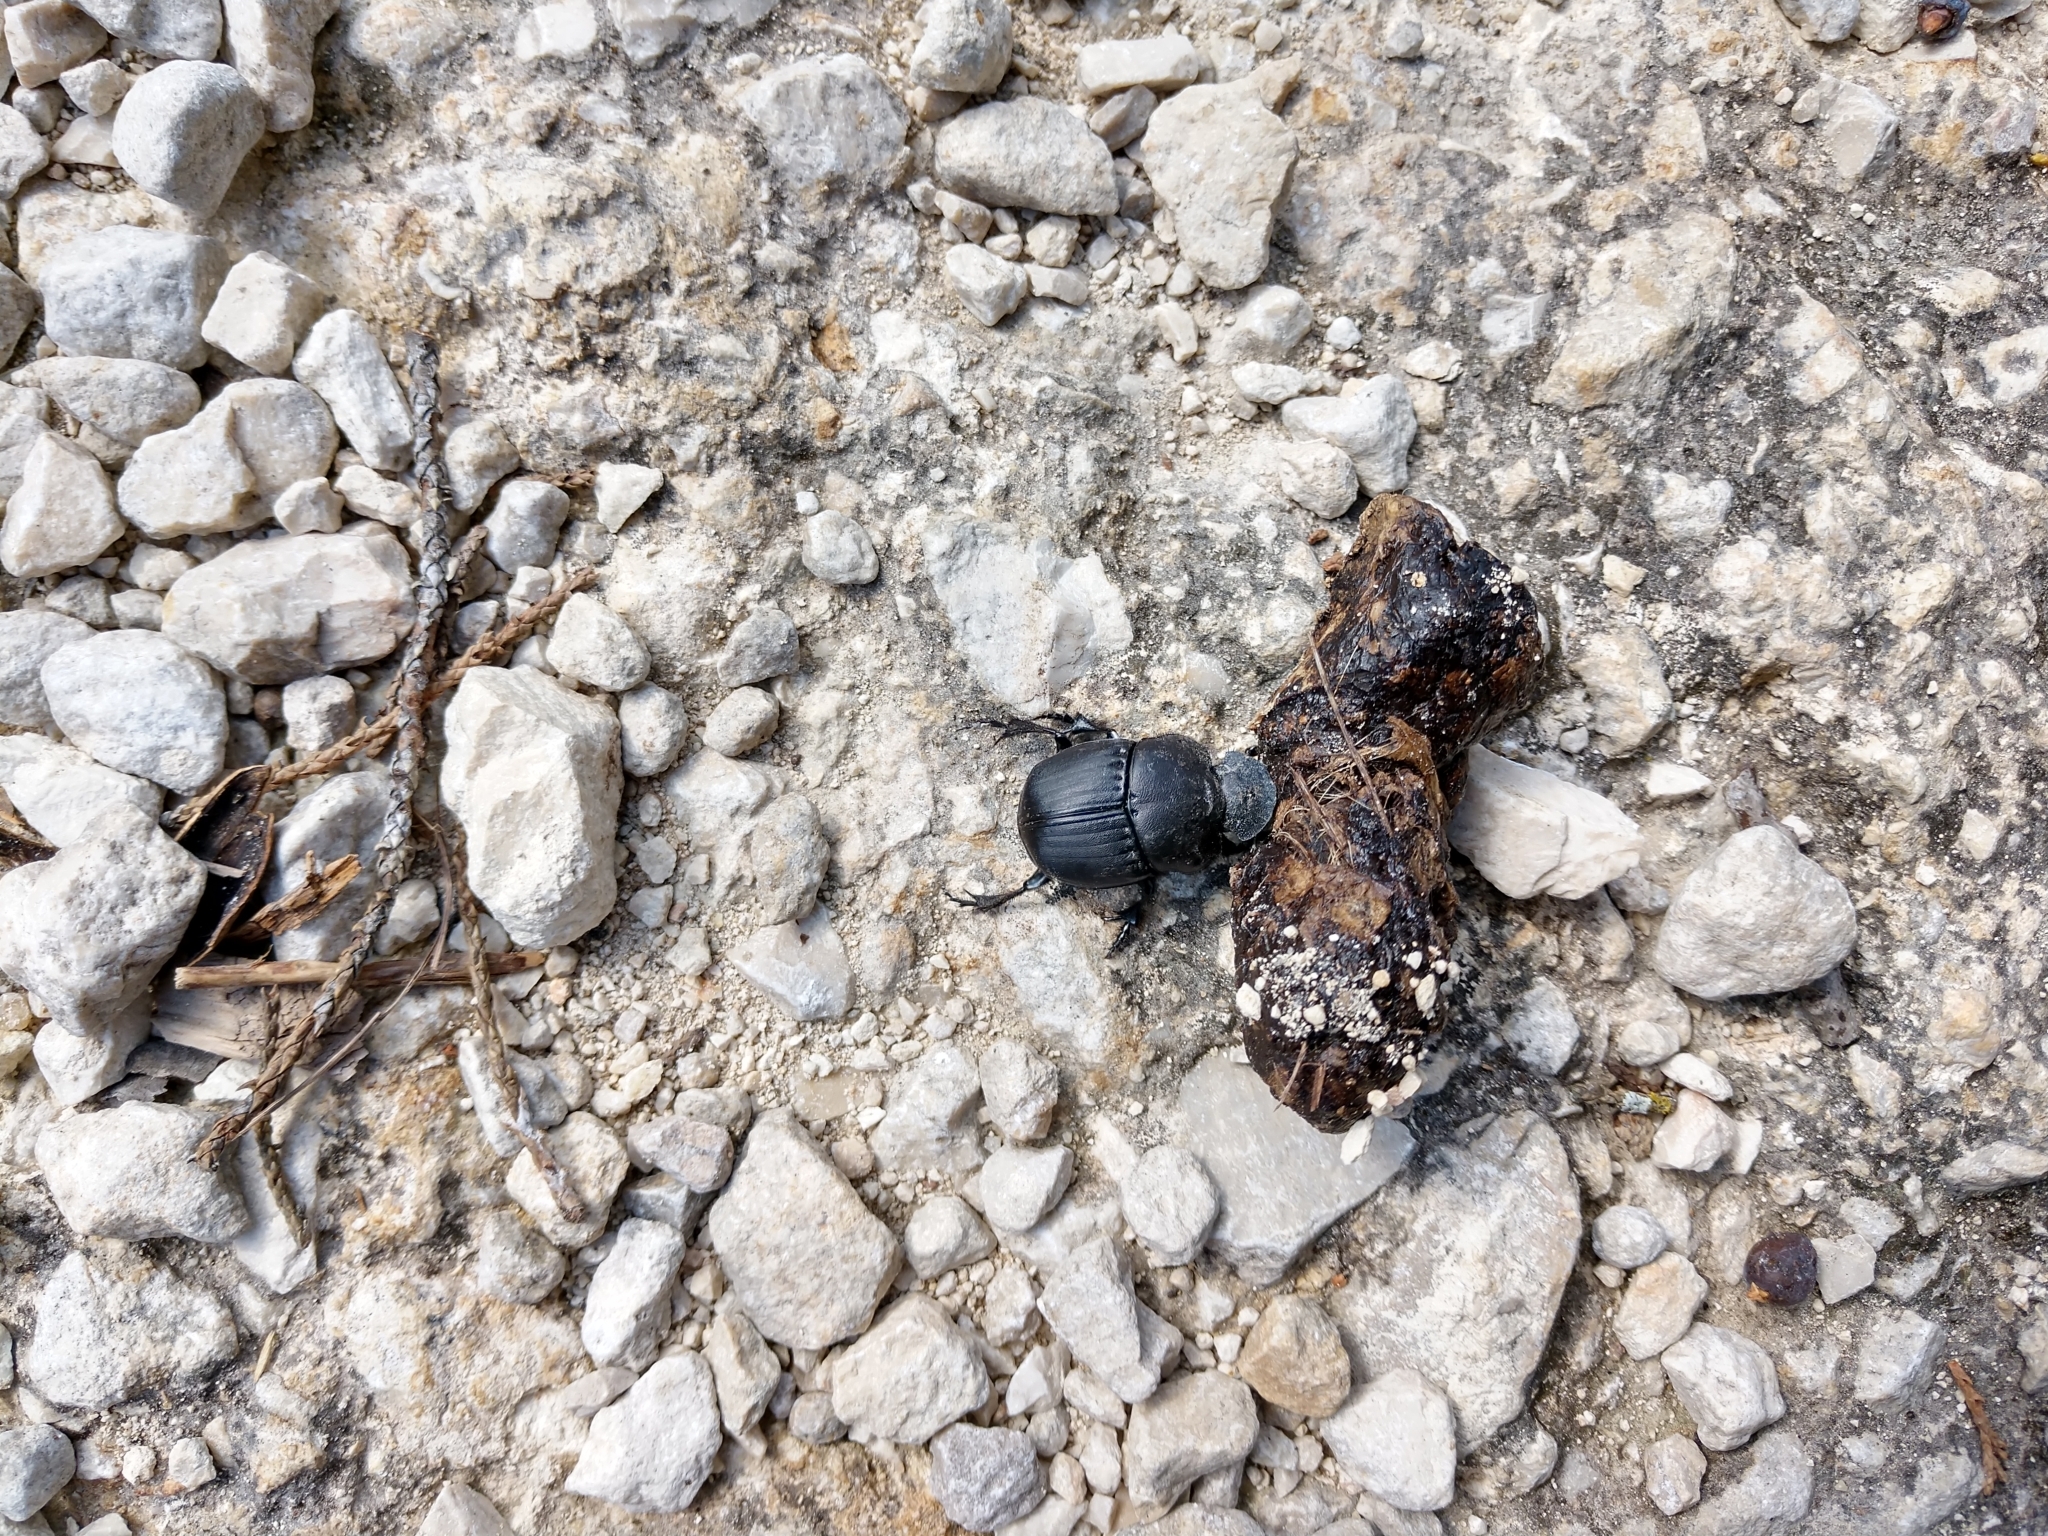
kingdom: Animalia
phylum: Arthropoda
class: Insecta
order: Coleoptera
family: Scarabaeidae
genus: Phanaeus
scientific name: Phanaeus texensis
